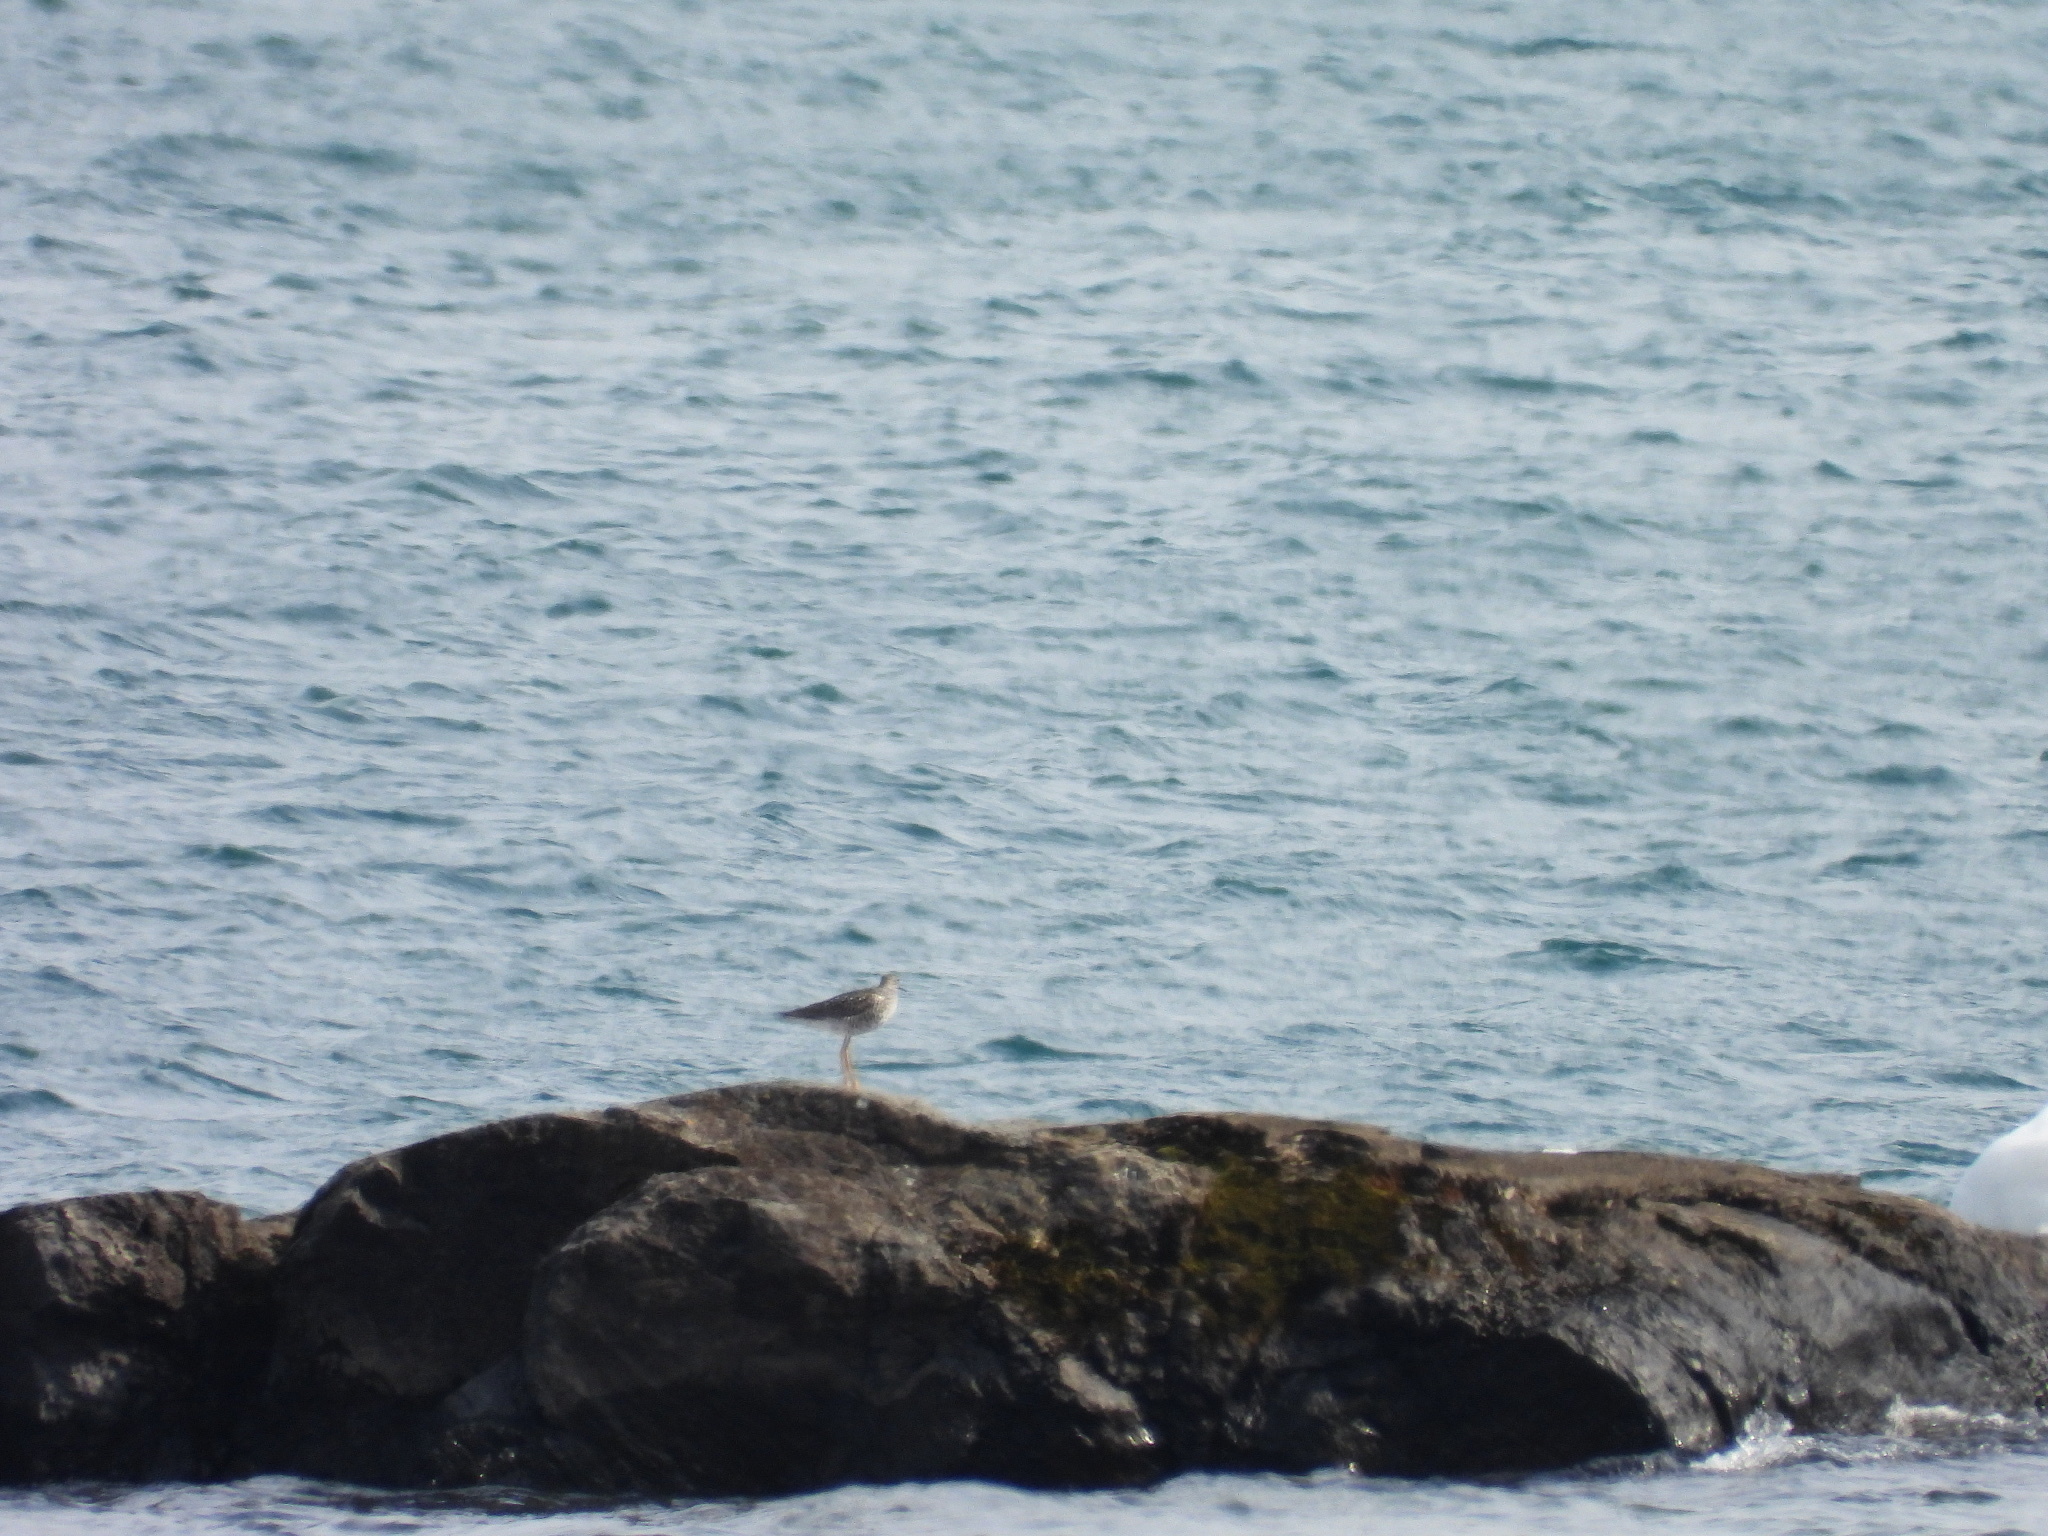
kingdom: Animalia
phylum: Chordata
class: Aves
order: Charadriiformes
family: Scolopacidae
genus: Tringa
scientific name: Tringa melanoleuca
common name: Greater yellowlegs
